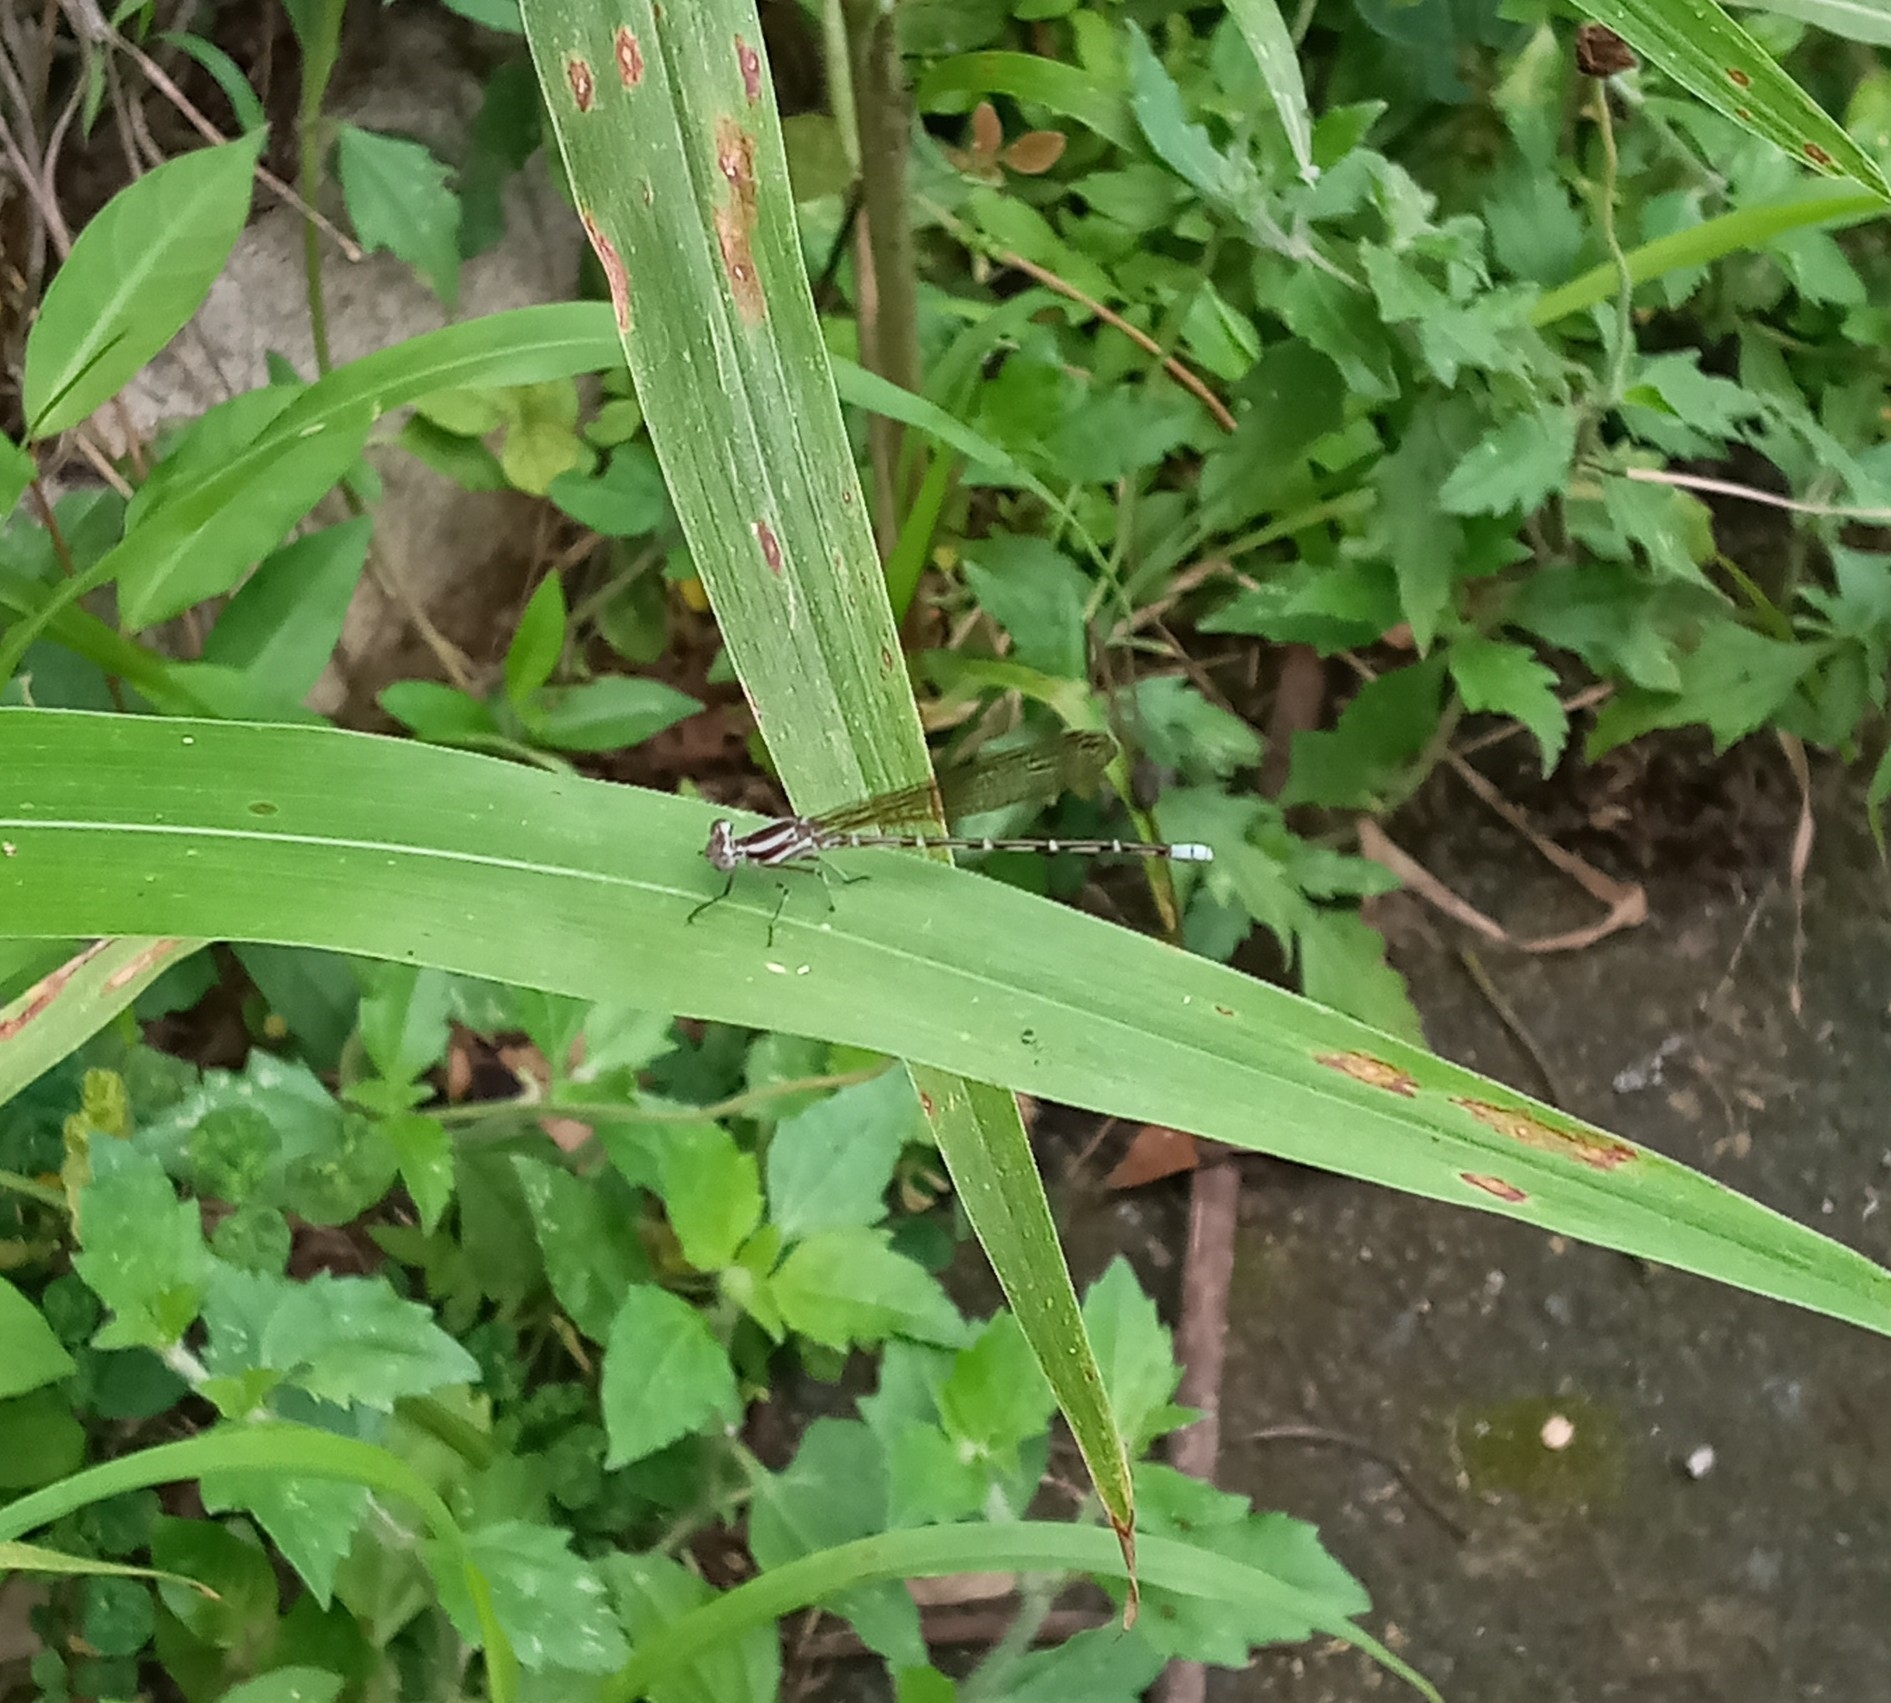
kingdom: Animalia
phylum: Arthropoda
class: Insecta
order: Odonata
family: Coenagrionidae
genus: Argia
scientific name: Argia pulla
